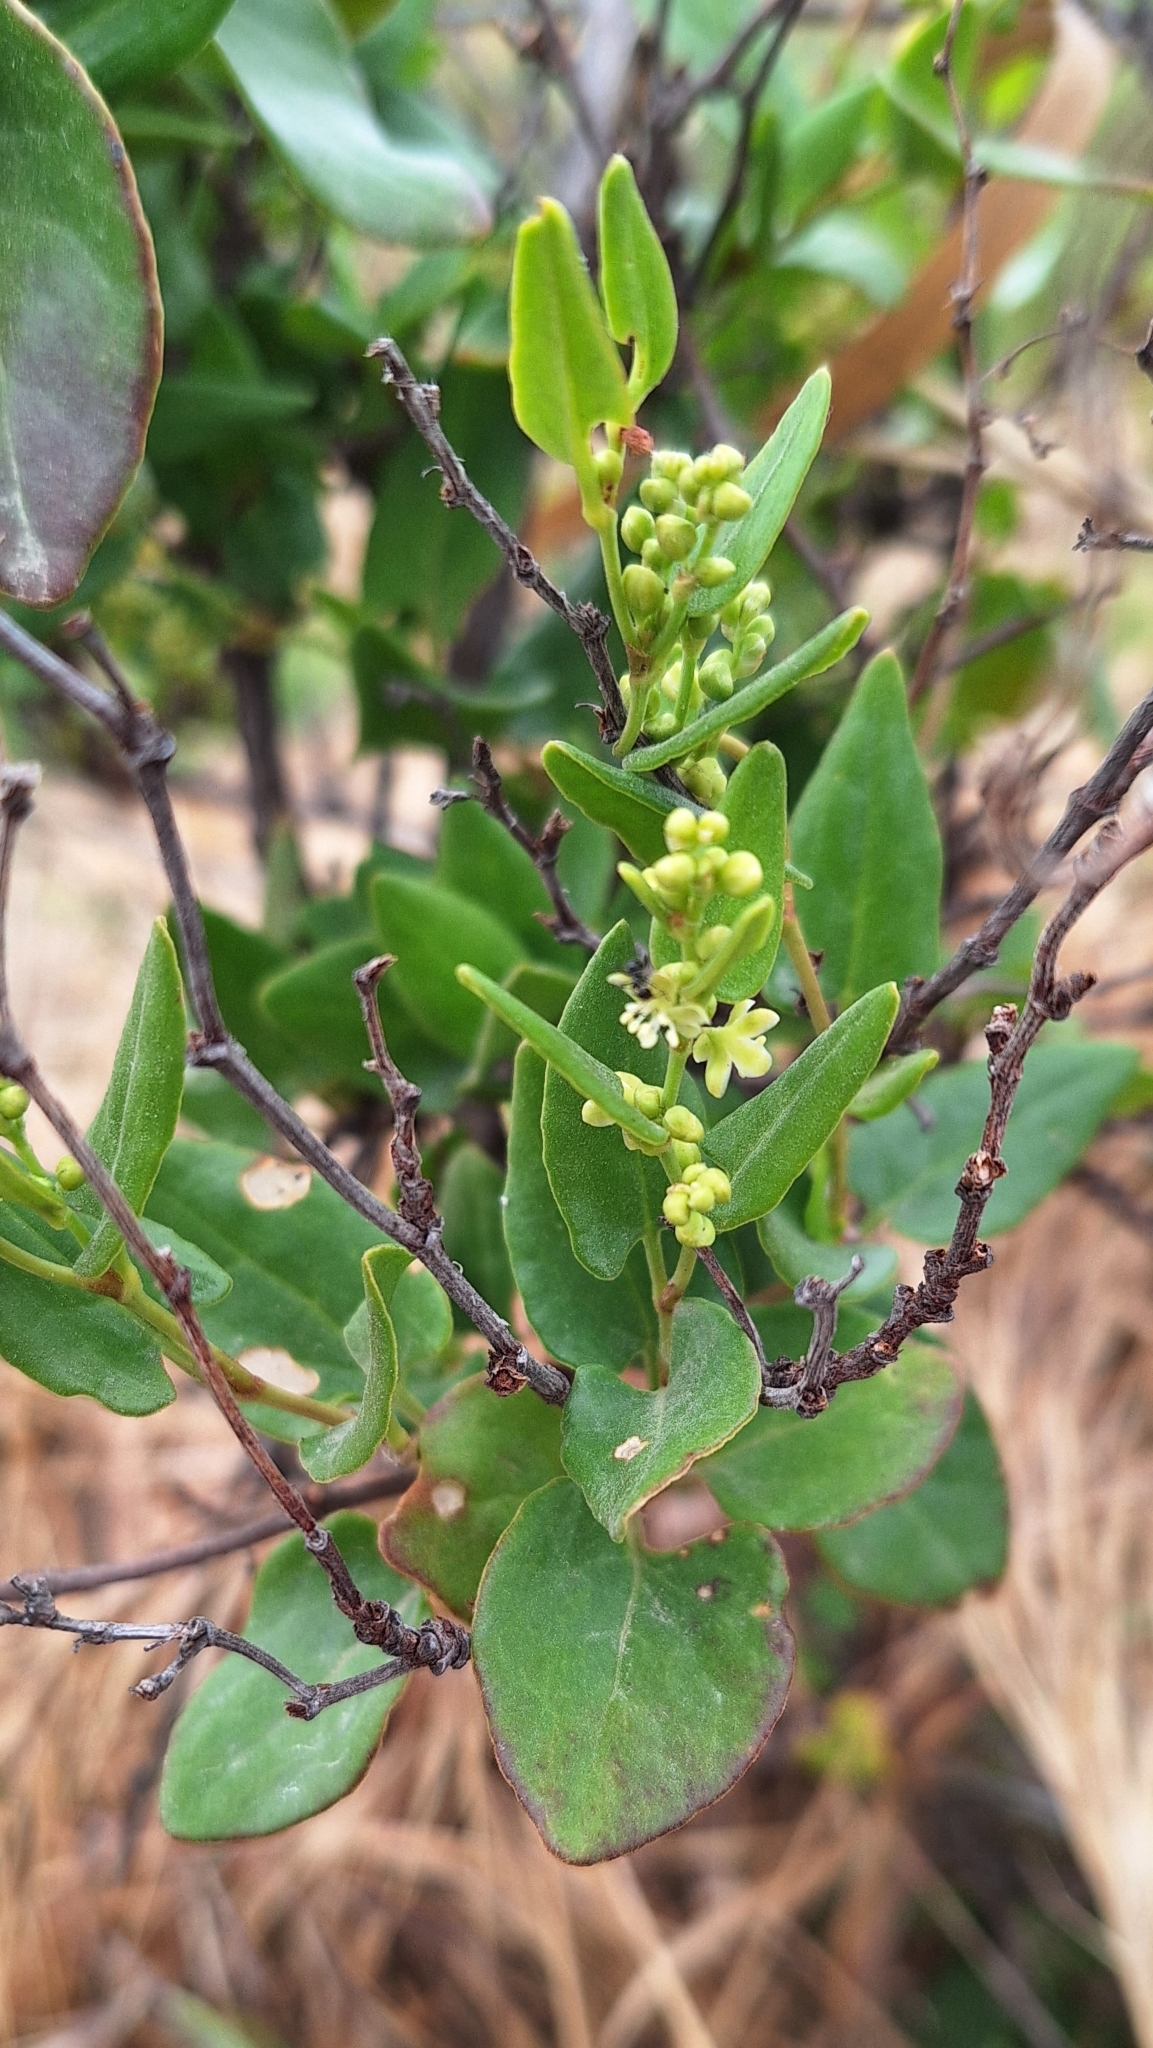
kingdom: Plantae
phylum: Tracheophyta
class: Magnoliopsida
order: Caryophyllales
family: Polygonaceae
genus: Muehlenbeckia
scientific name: Muehlenbeckia gunnii
